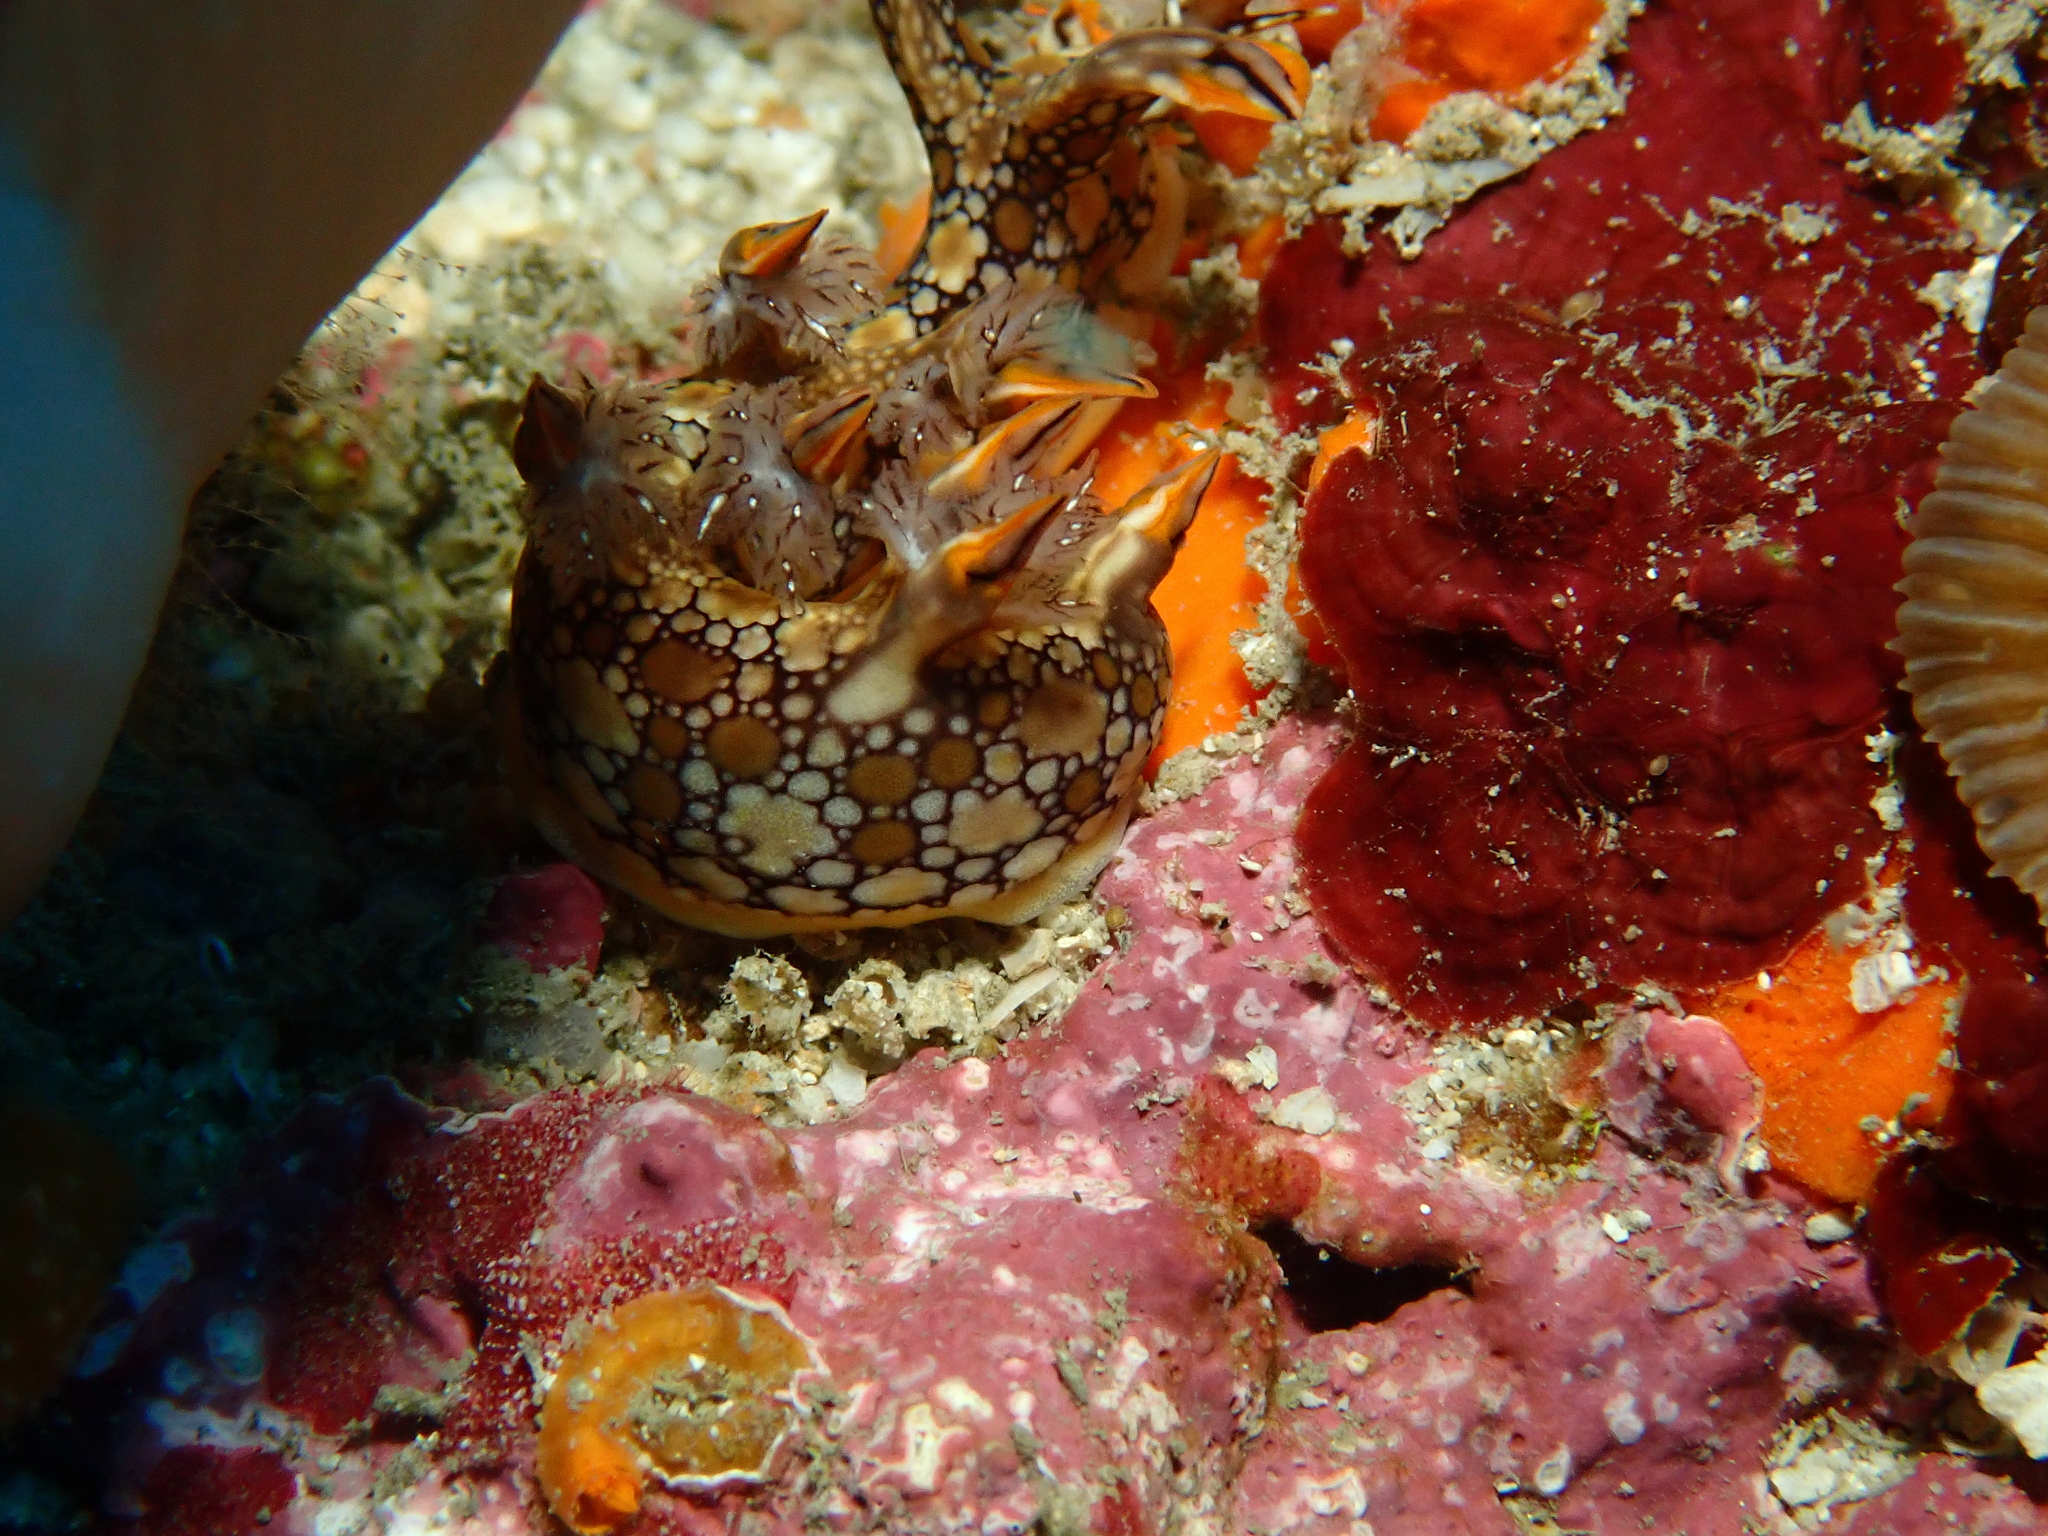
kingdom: Animalia
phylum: Mollusca
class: Gastropoda
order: Nudibranchia
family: Bornellidae
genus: Bornella
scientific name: Bornella anguilla
